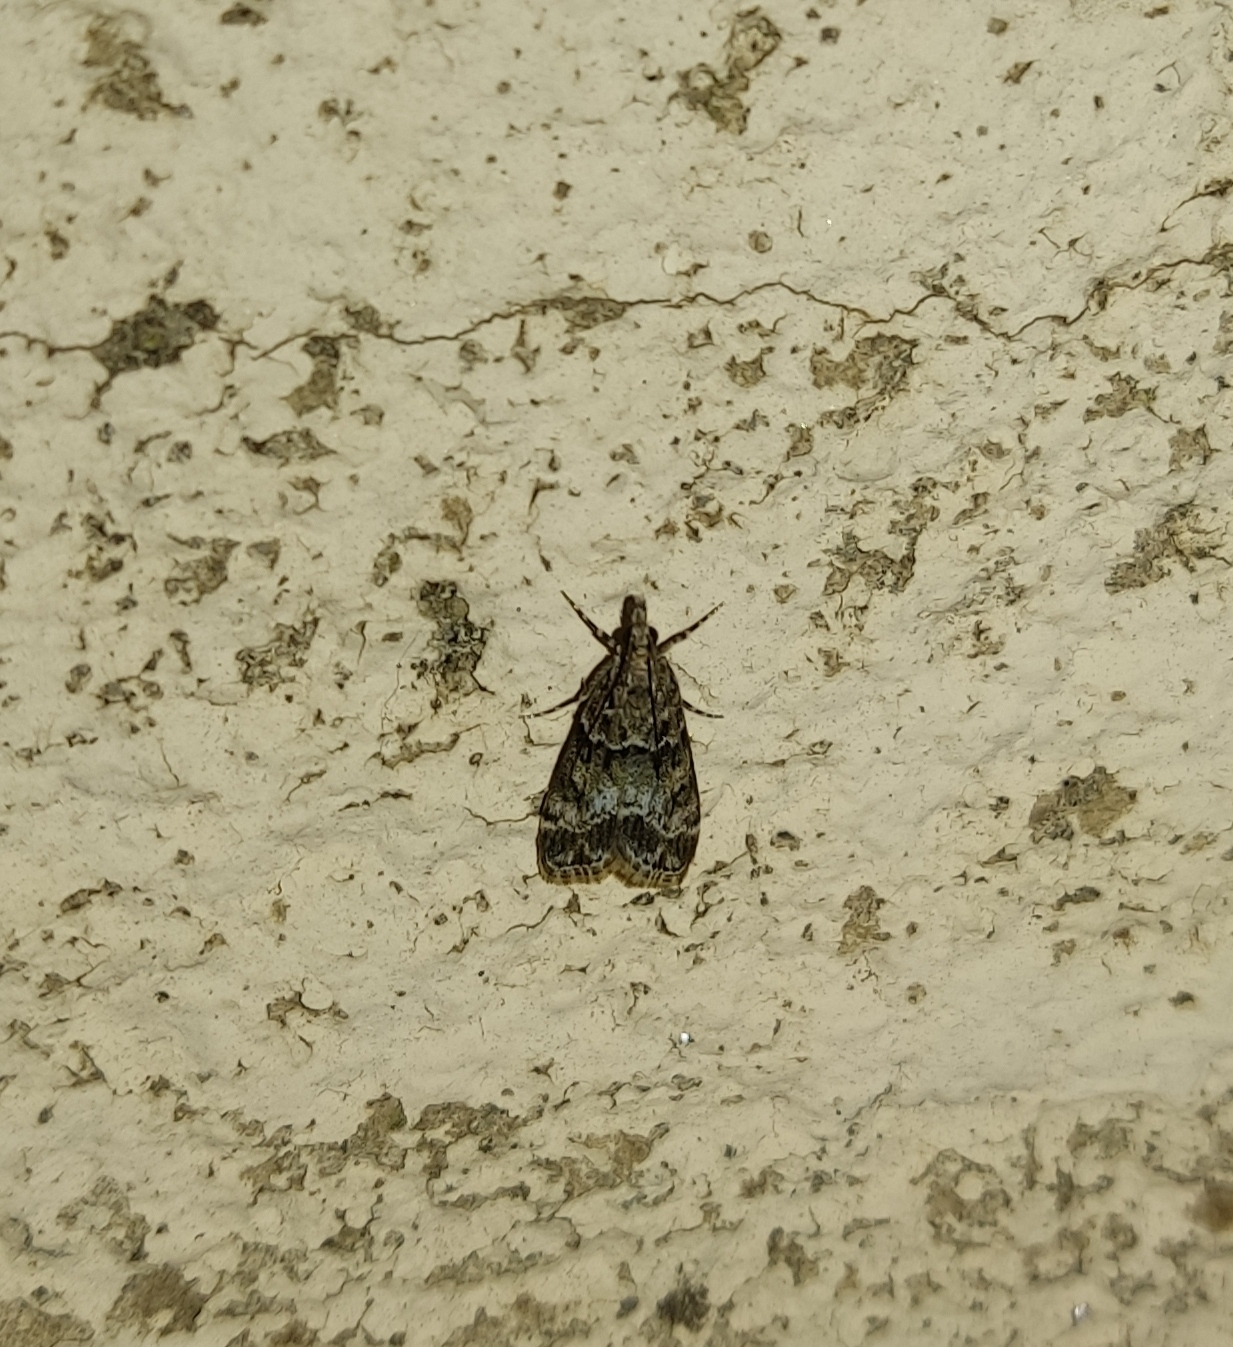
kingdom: Animalia
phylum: Arthropoda
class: Insecta
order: Lepidoptera
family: Crambidae
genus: Eudonia
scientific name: Eudonia mercurella
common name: Small grey
